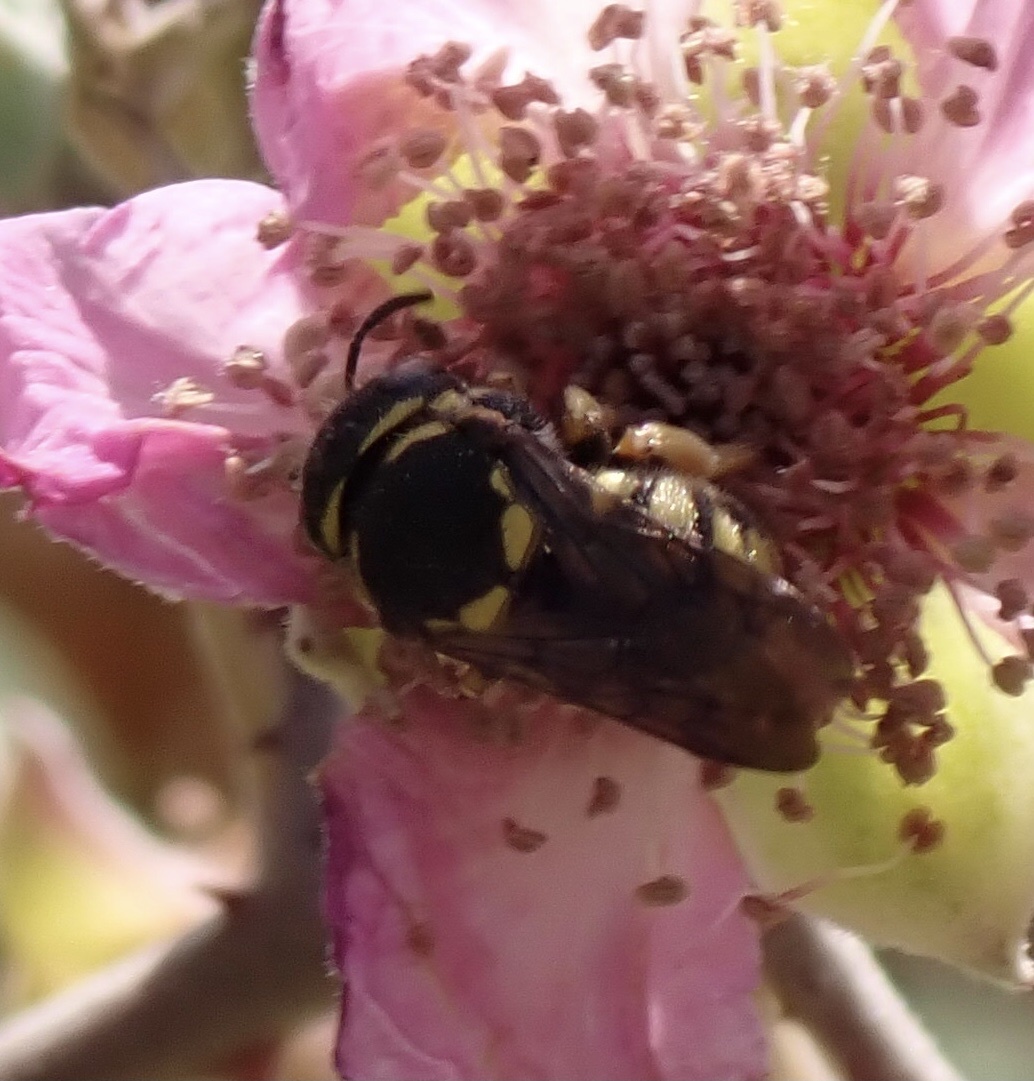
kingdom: Animalia
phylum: Arthropoda
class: Insecta
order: Hymenoptera
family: Megachilidae
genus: Anthidiellum
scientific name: Anthidiellum strigatum
